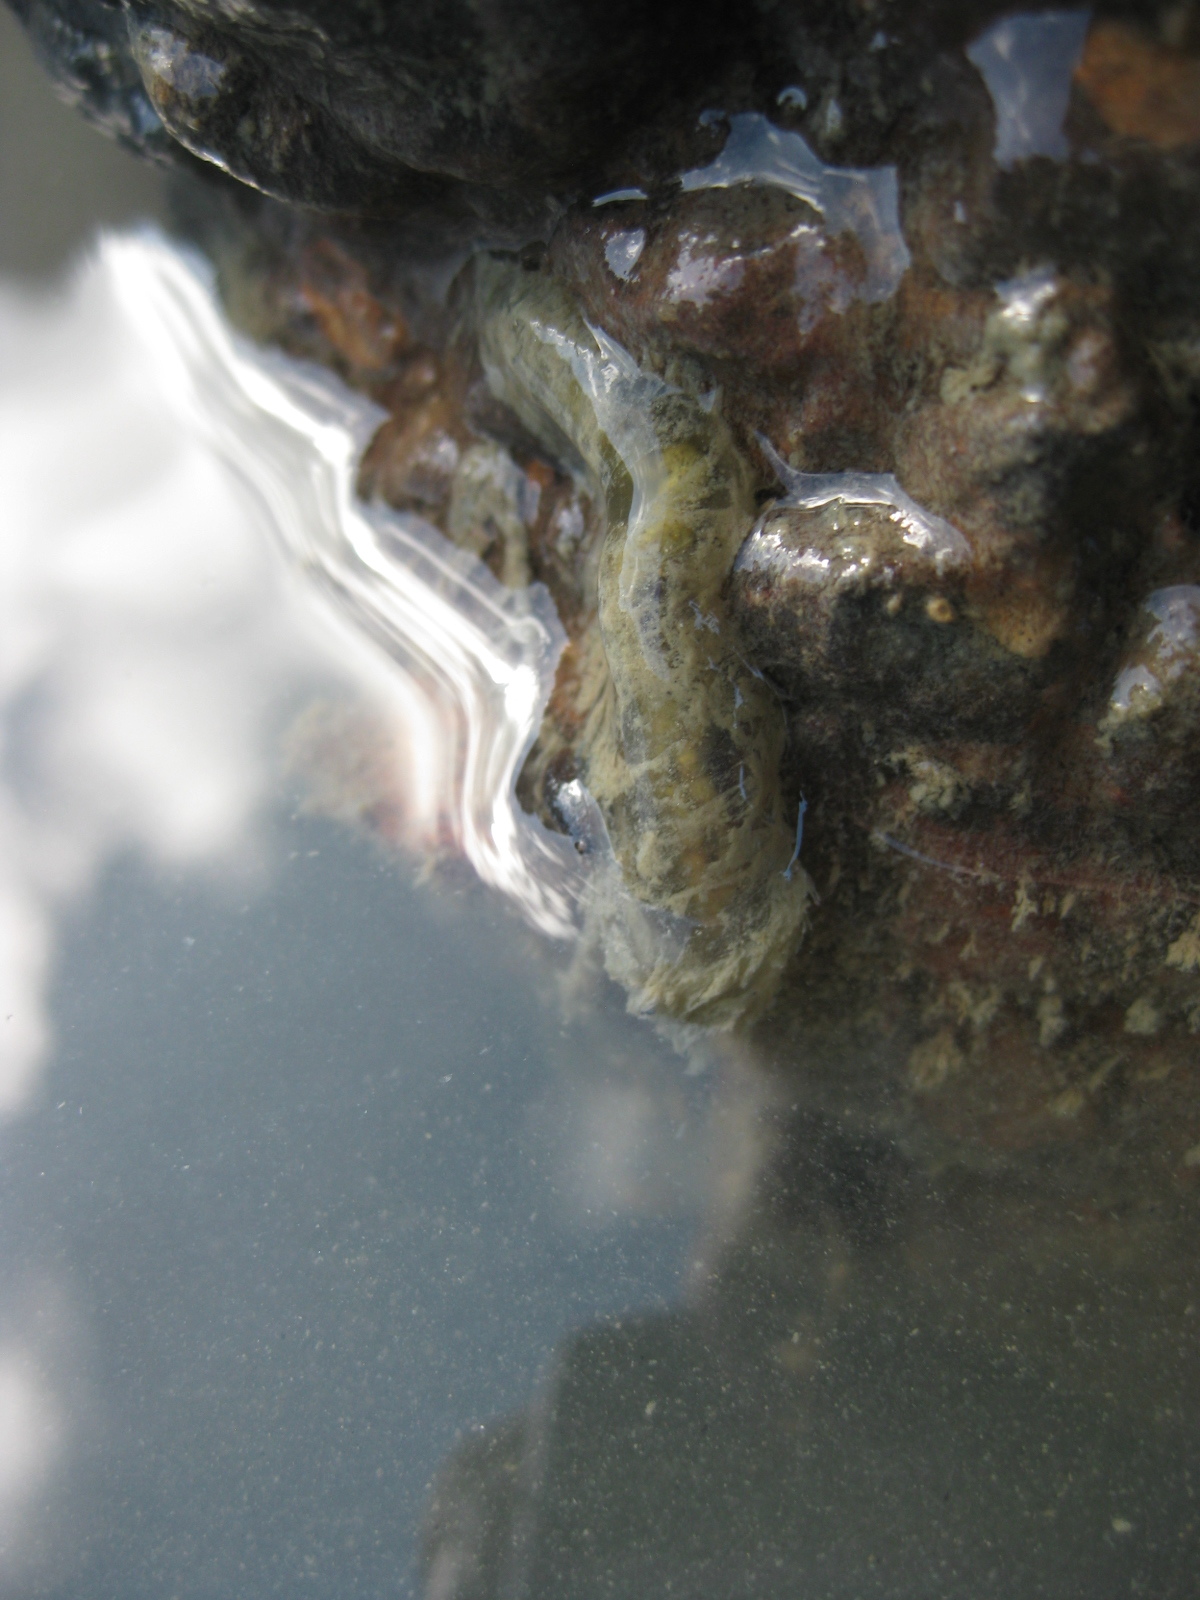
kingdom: Animalia
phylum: Annelida
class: Polychaeta
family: Flabelligeridae
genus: Flabelligera
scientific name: Flabelligera bicolor
